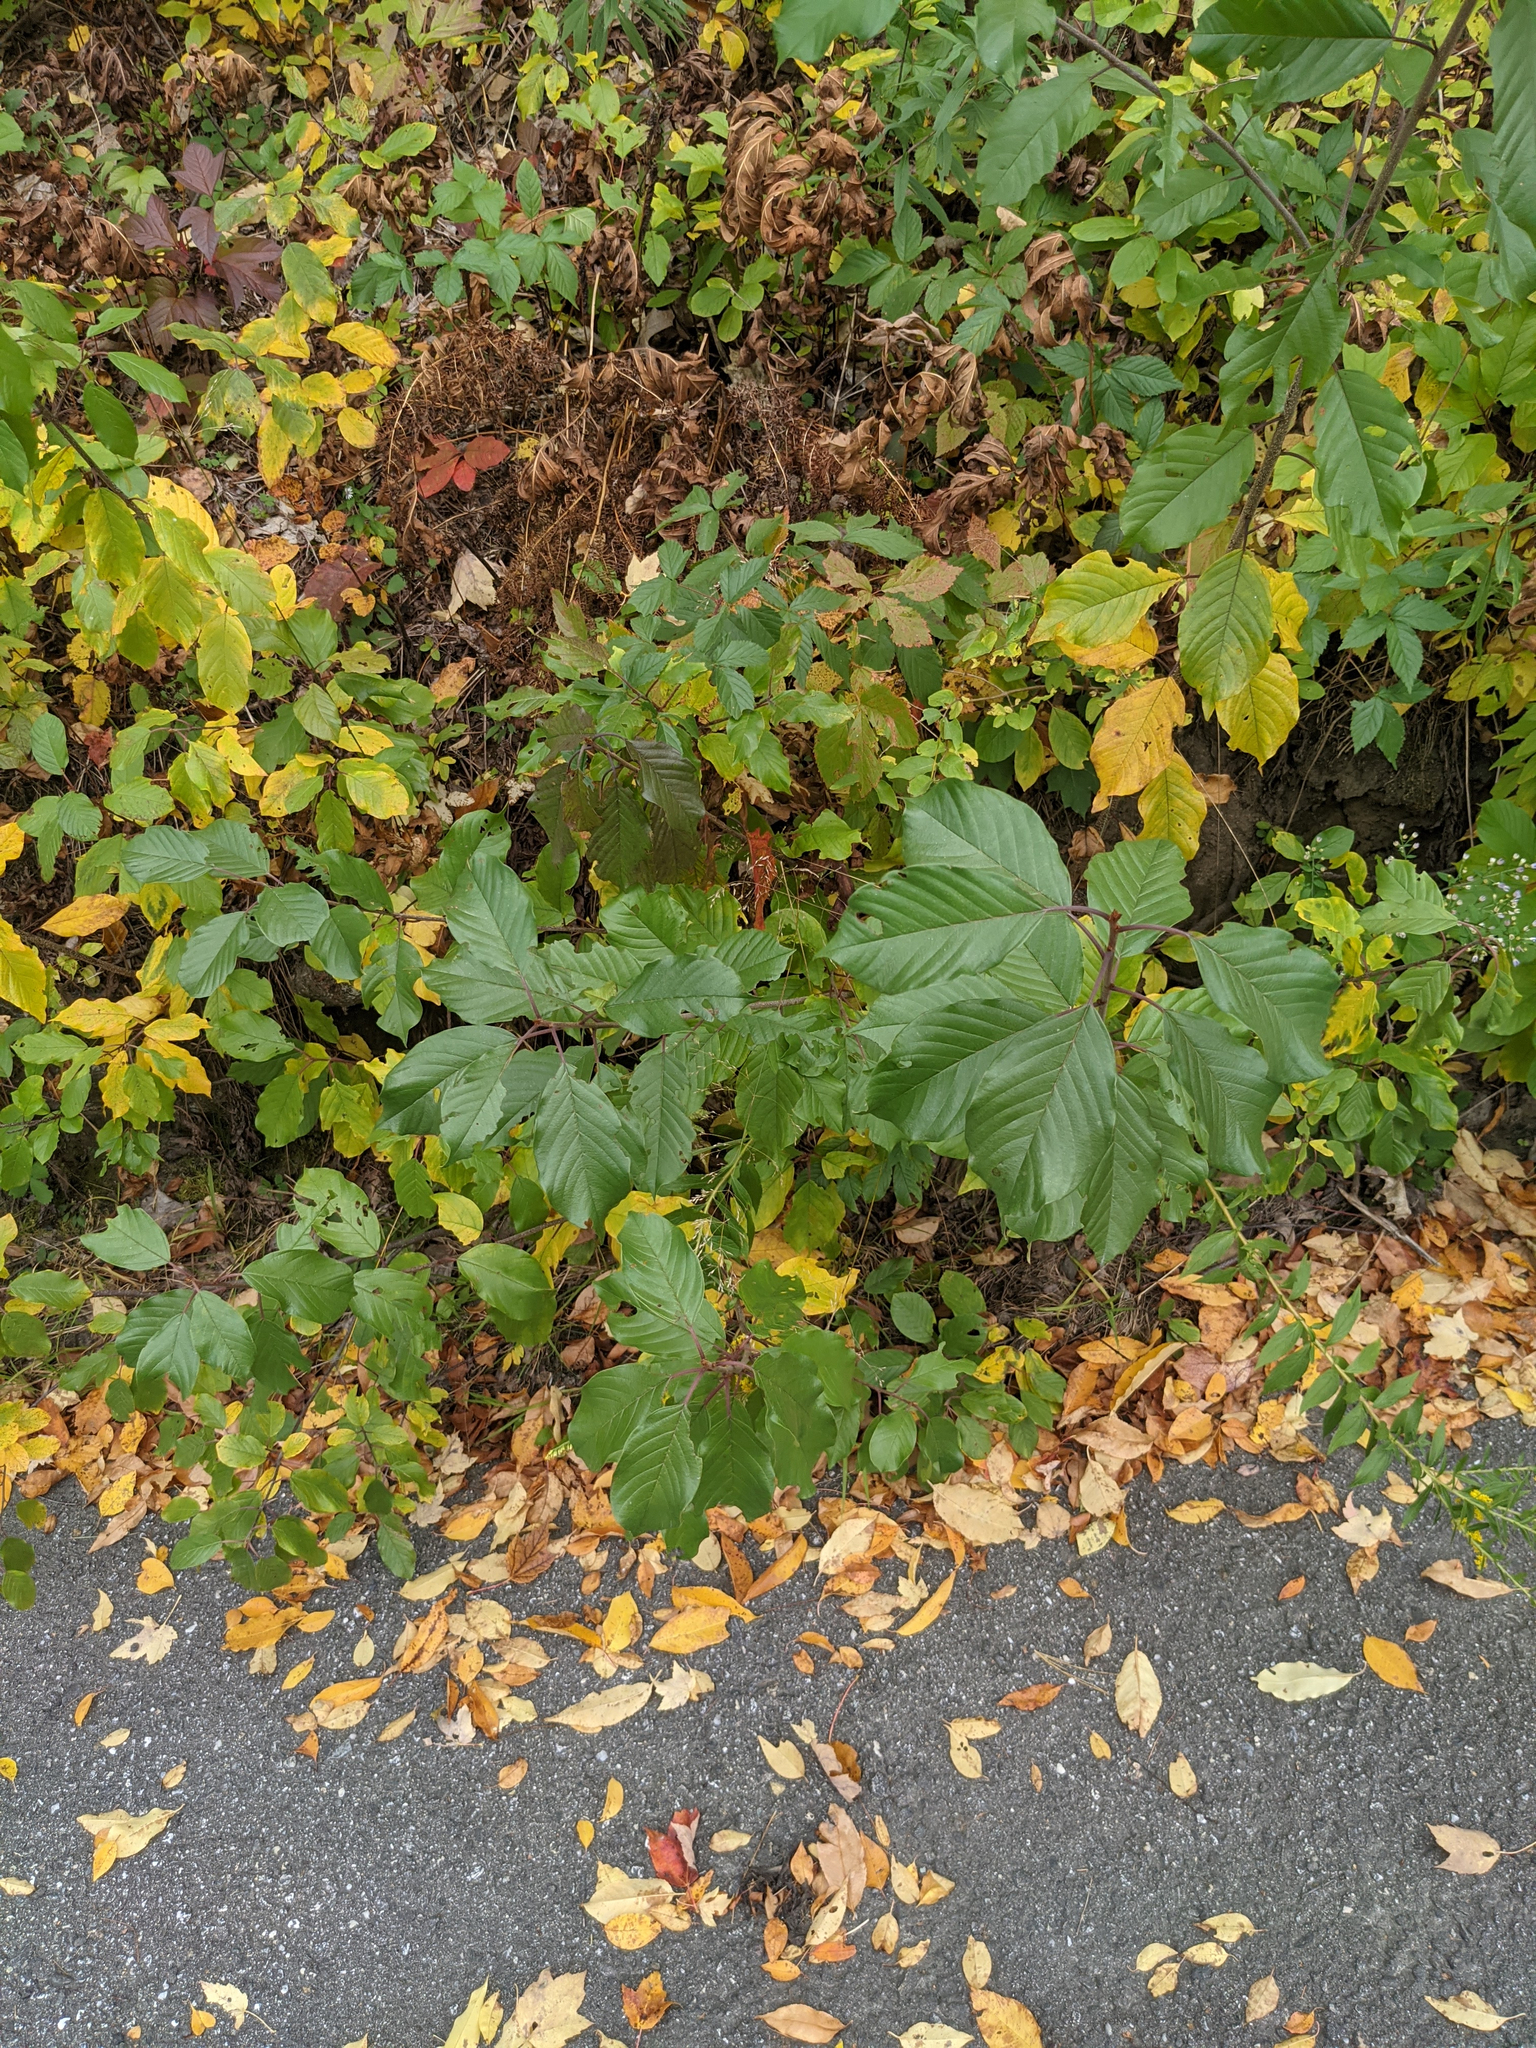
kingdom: Plantae
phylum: Tracheophyta
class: Magnoliopsida
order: Rosales
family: Rhamnaceae
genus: Frangula
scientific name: Frangula alnus
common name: Alder buckthorn
